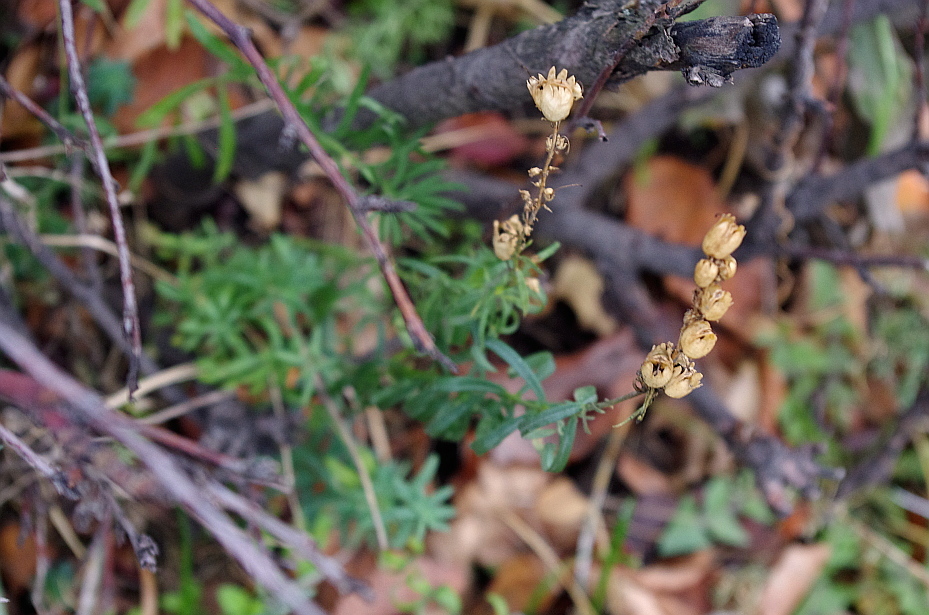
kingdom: Plantae
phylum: Tracheophyta
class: Magnoliopsida
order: Lamiales
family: Plantaginaceae
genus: Linaria
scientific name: Linaria vulgaris
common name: Butter and eggs
